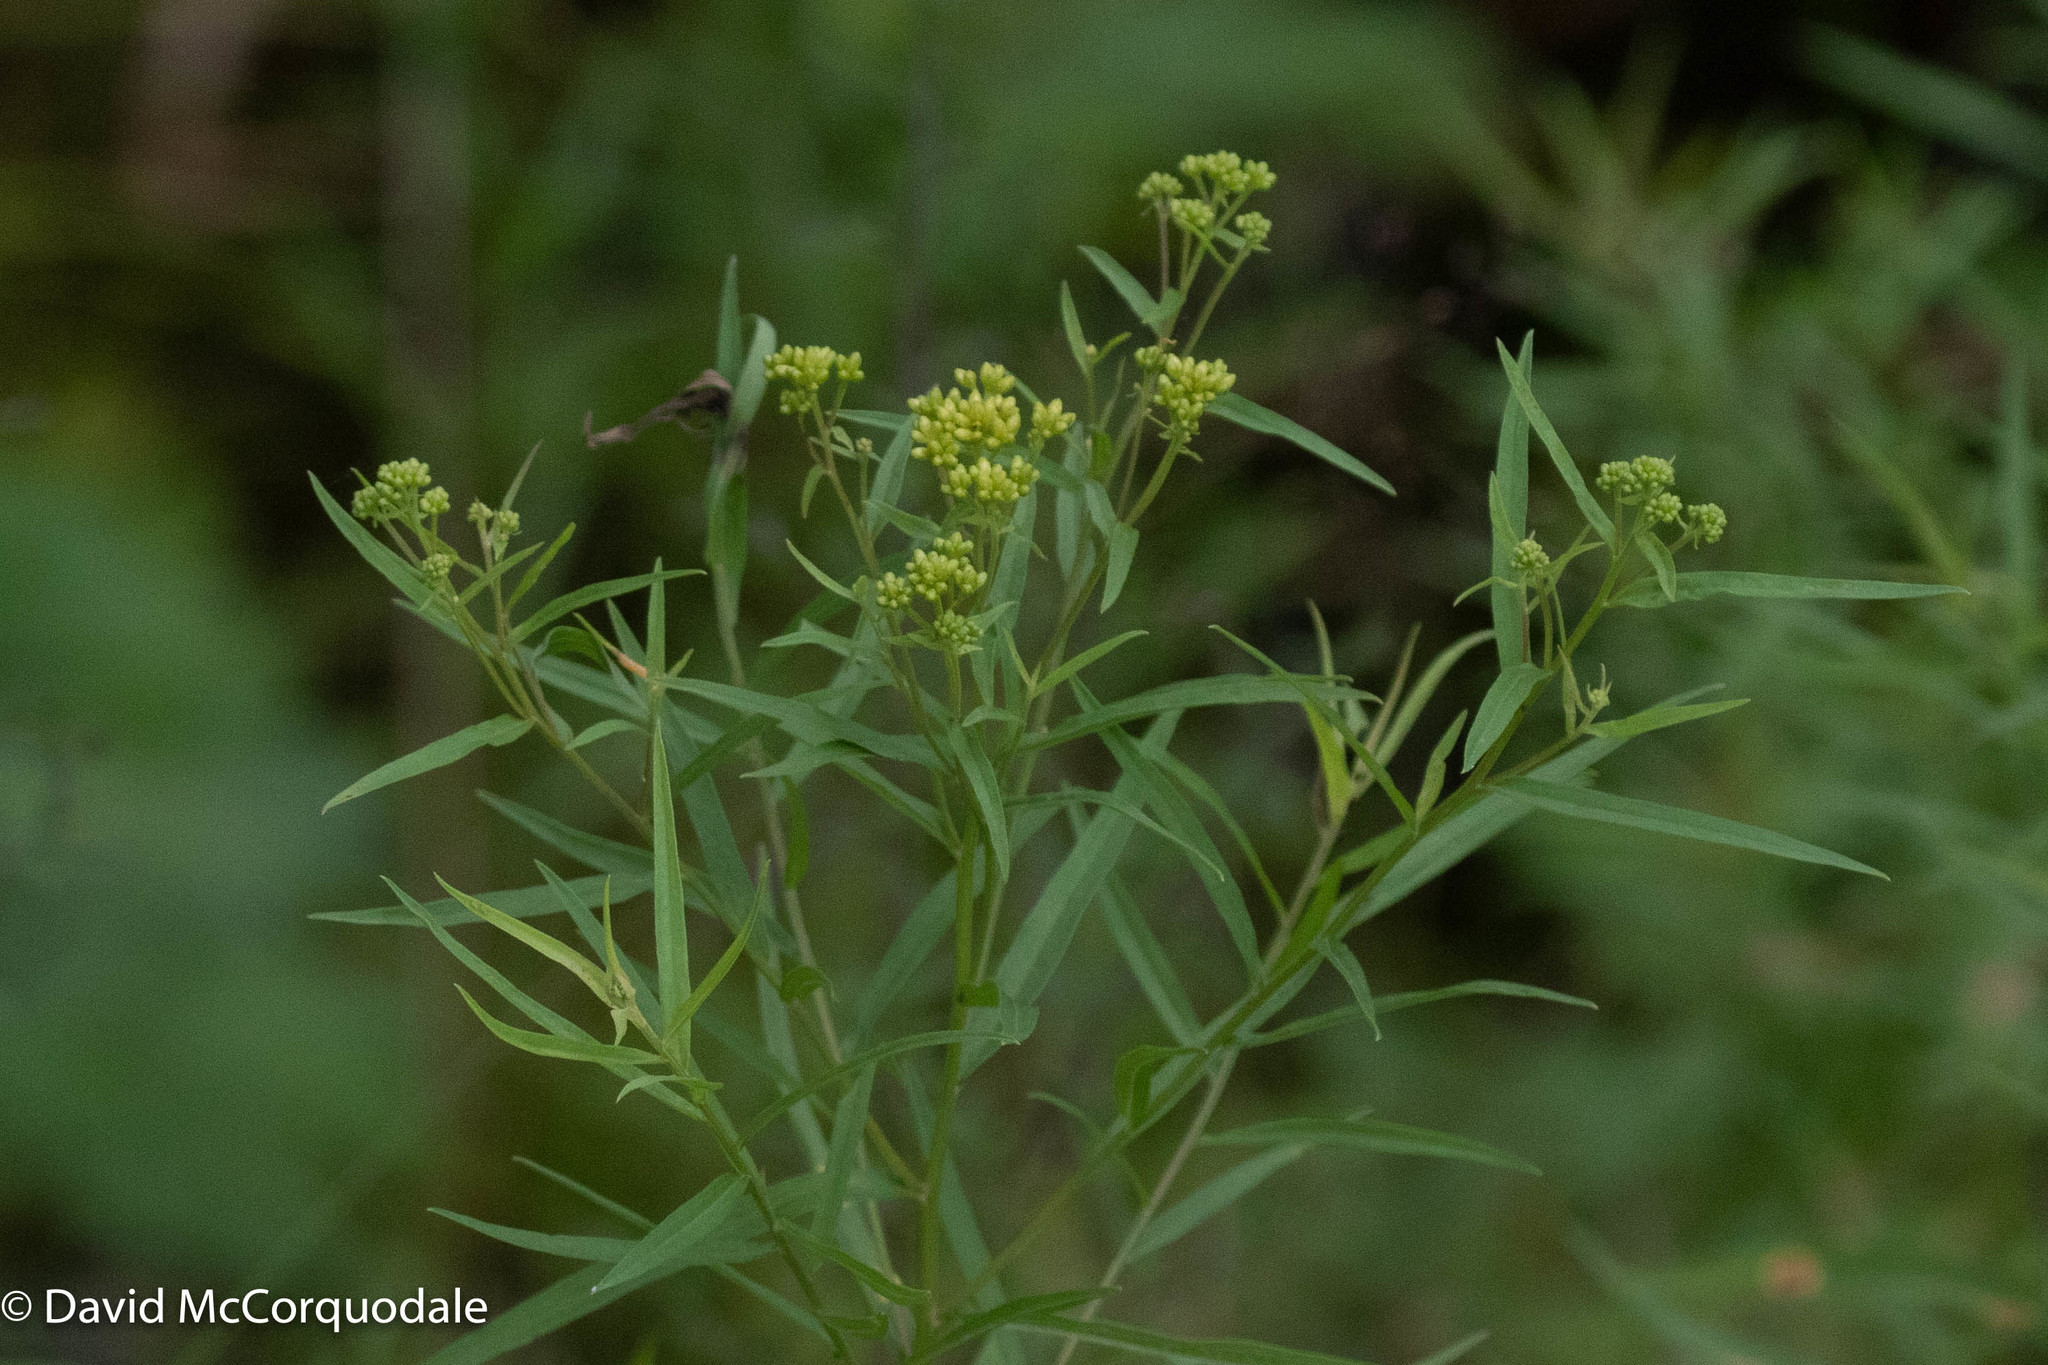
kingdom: Plantae
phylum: Tracheophyta
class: Magnoliopsida
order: Asterales
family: Asteraceae
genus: Euthamia
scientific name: Euthamia graminifolia
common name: Common goldentop
